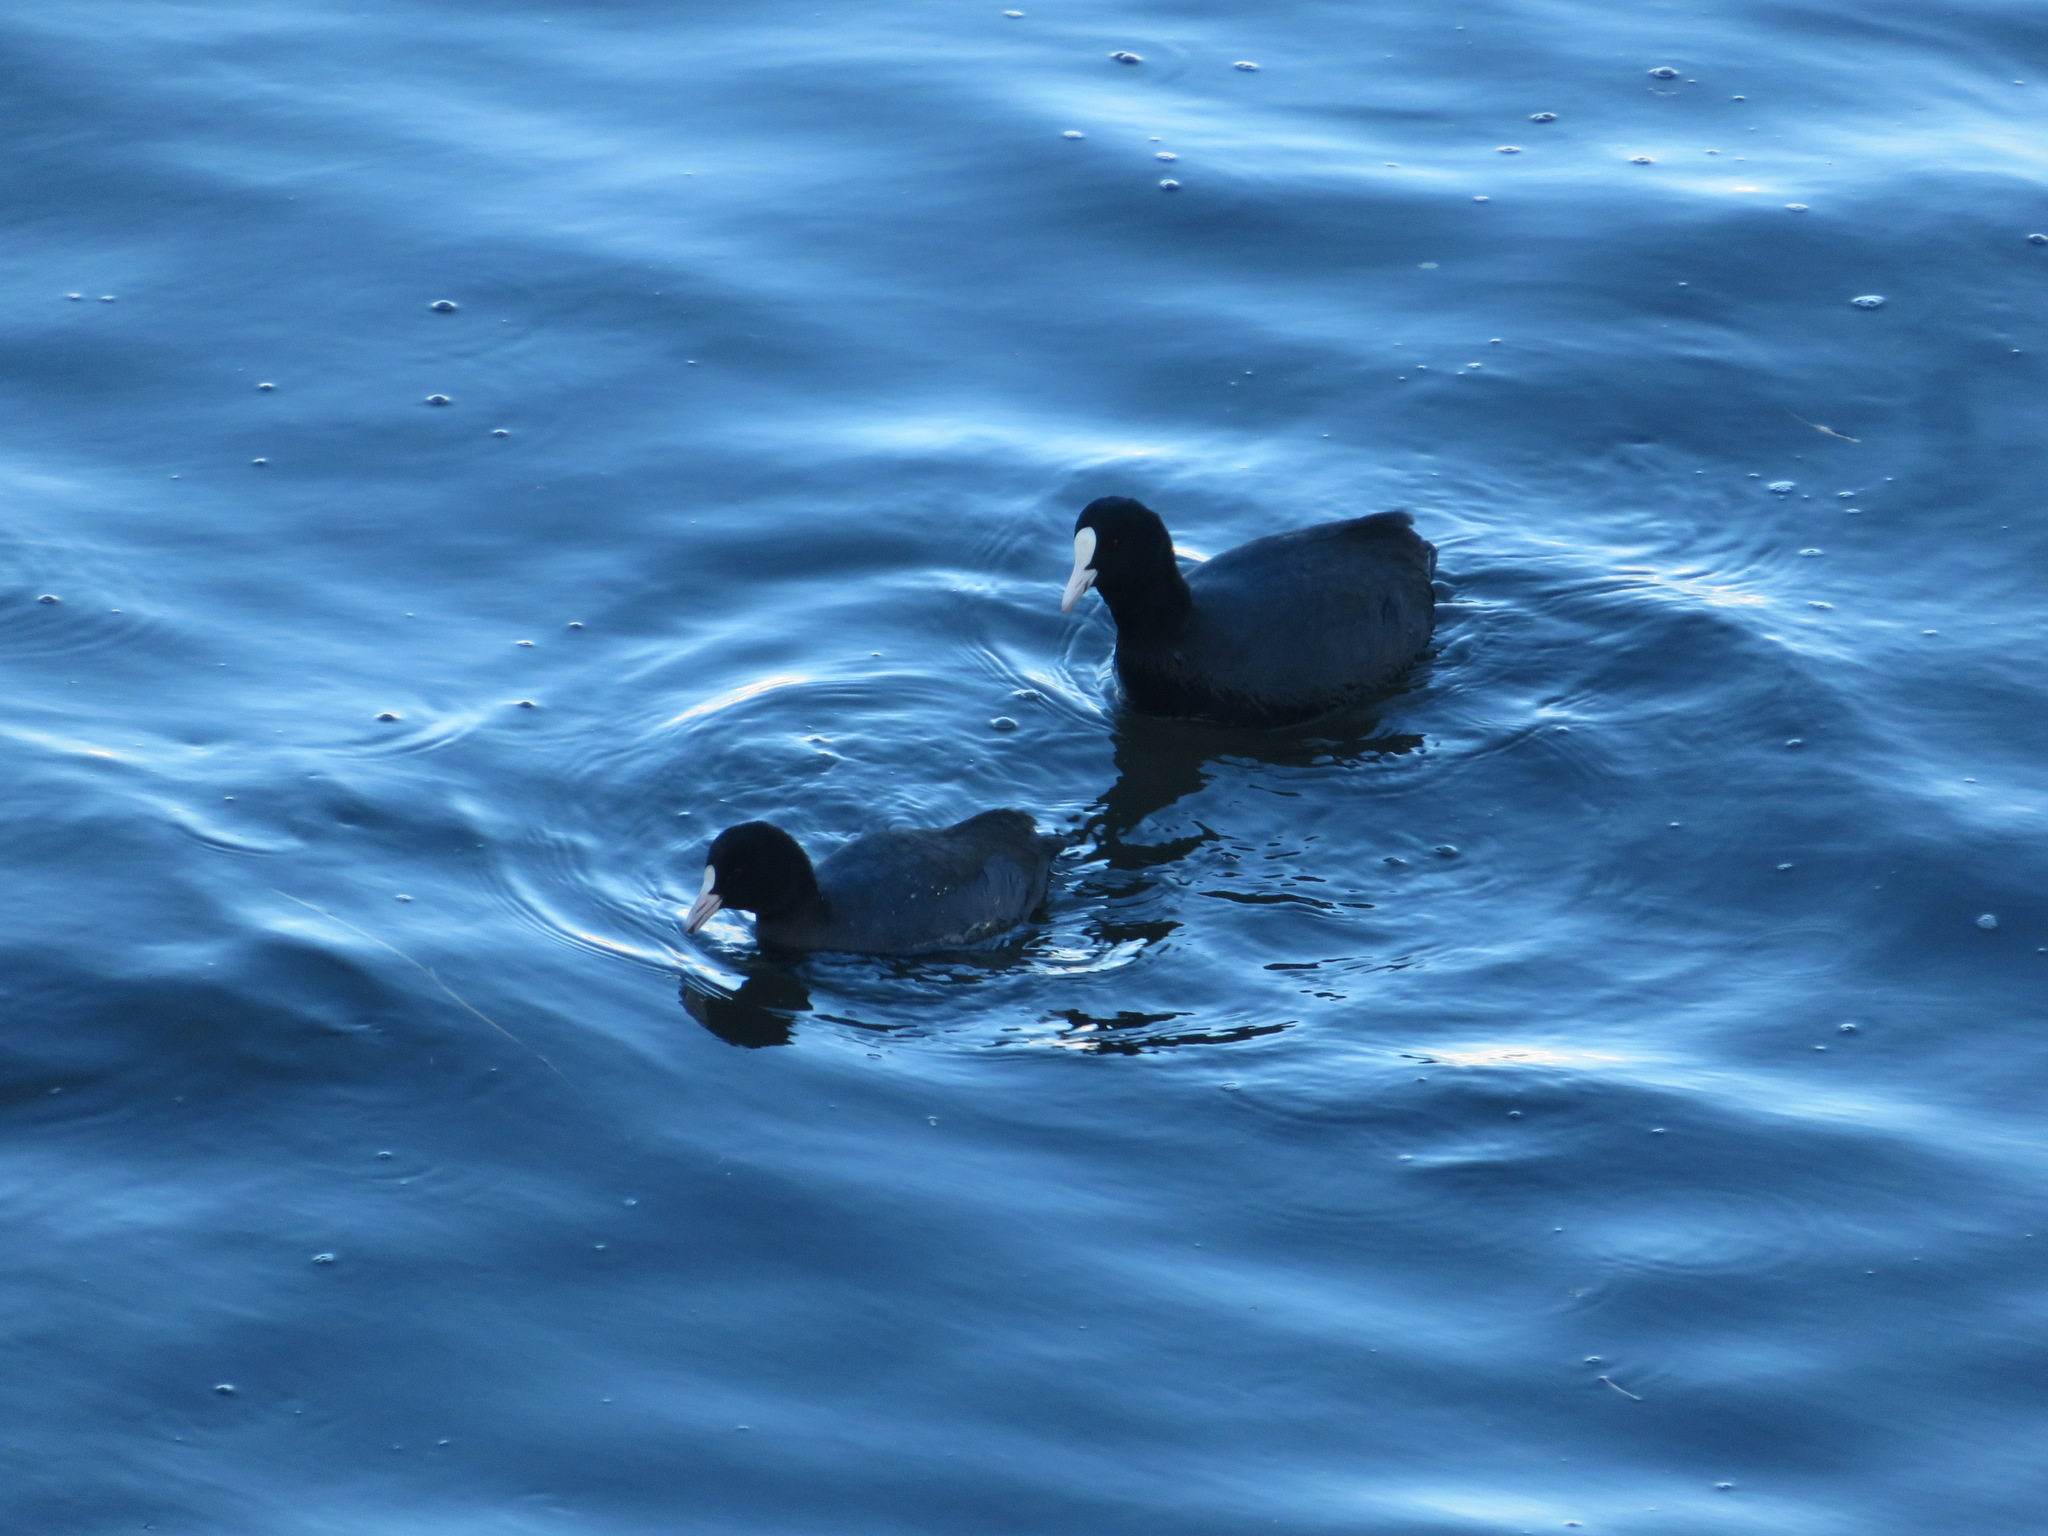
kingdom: Animalia
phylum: Chordata
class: Aves
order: Gruiformes
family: Rallidae
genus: Fulica
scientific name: Fulica atra
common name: Eurasian coot
